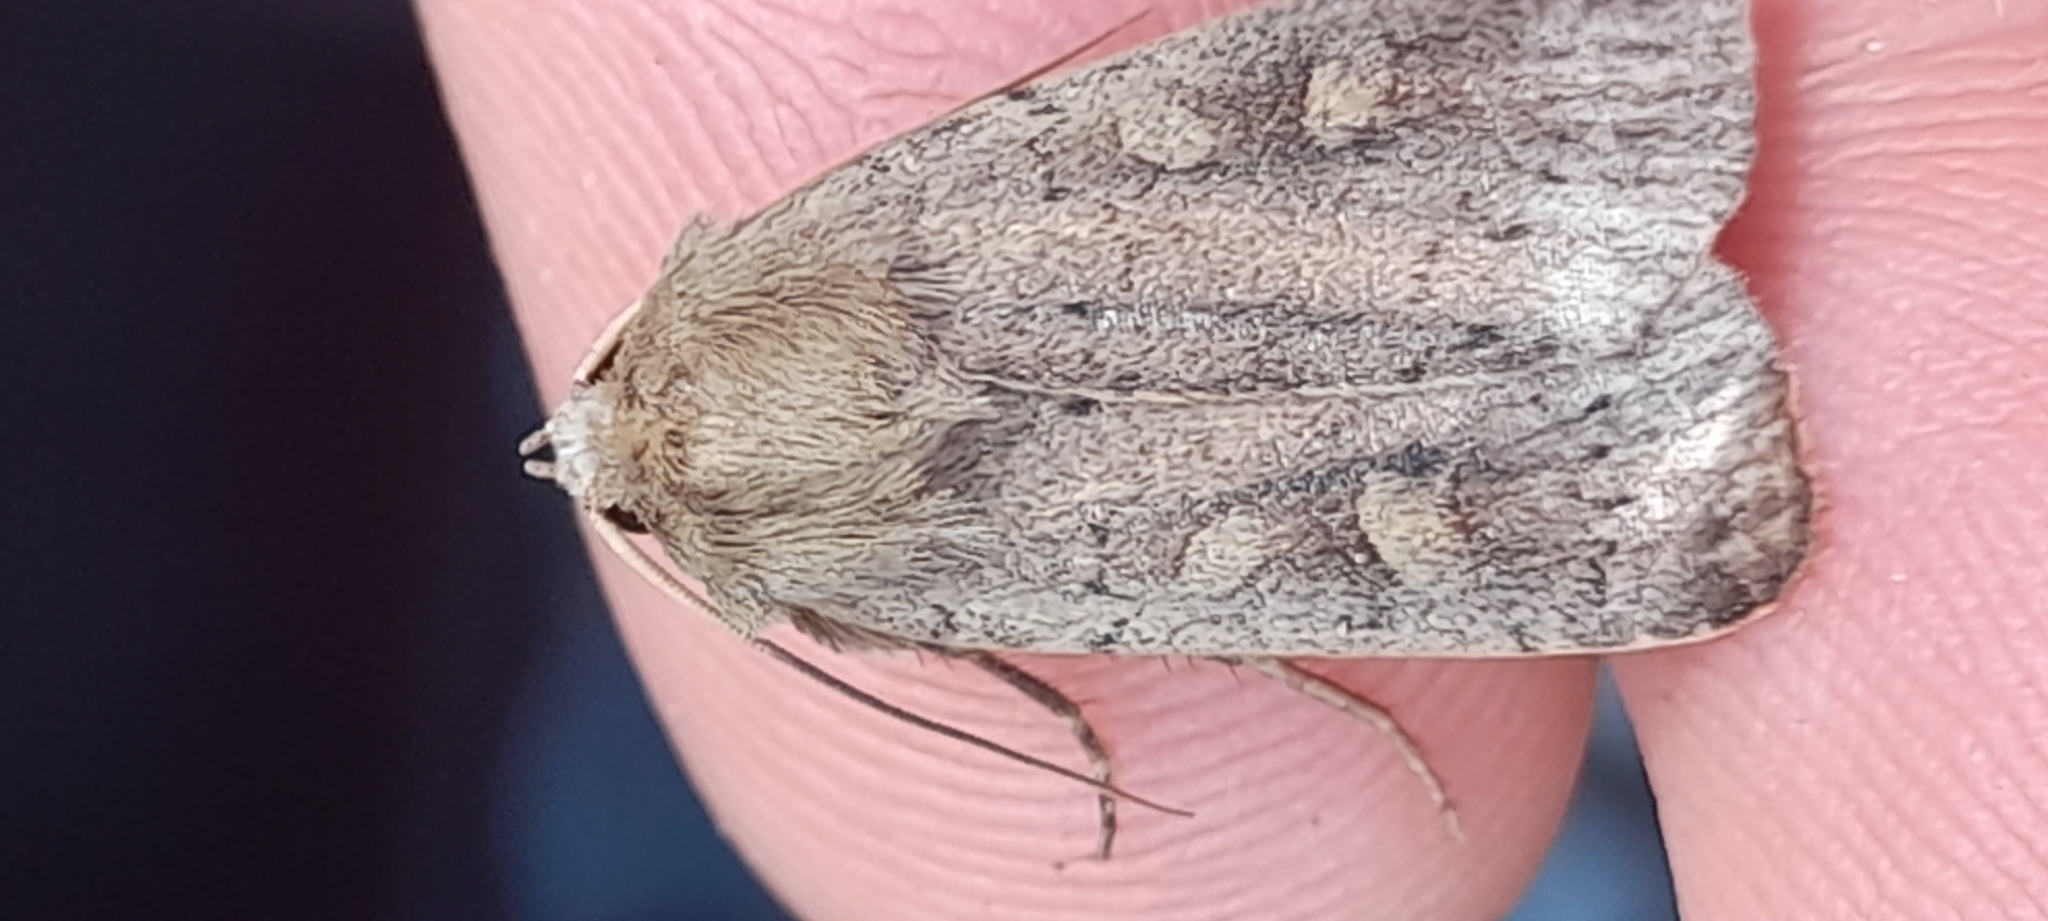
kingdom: Animalia
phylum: Arthropoda
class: Insecta
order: Lepidoptera
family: Noctuidae
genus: Xestia
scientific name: Xestia xanthographa
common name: Square-spot rustic
